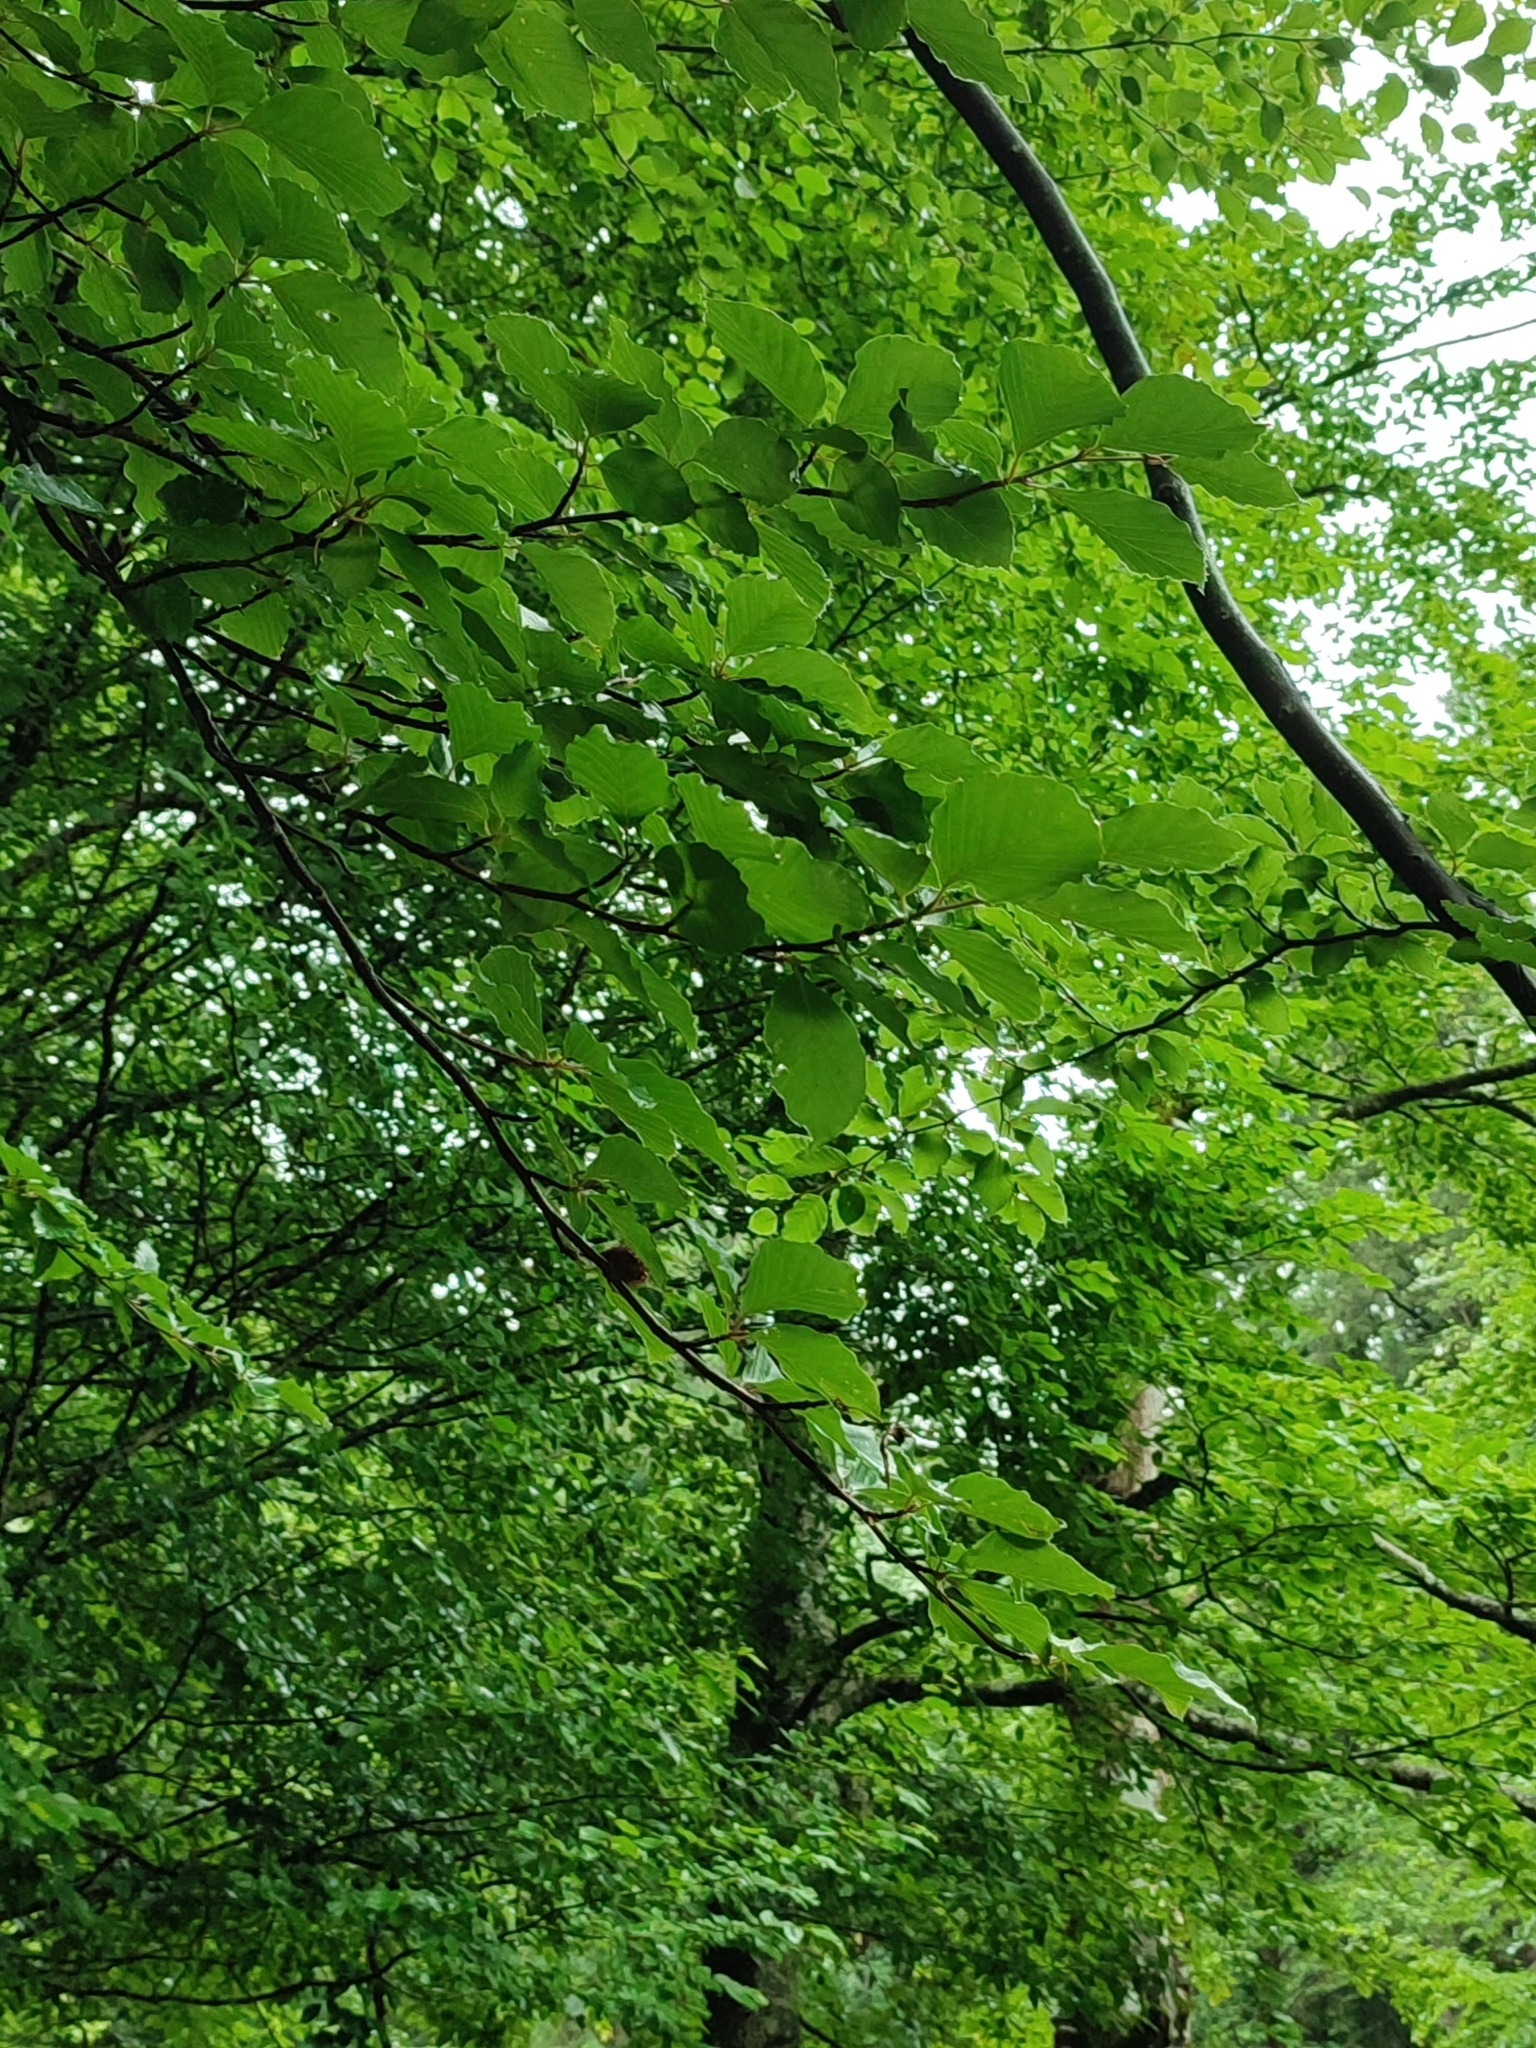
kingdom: Plantae
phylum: Tracheophyta
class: Magnoliopsida
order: Fagales
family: Fagaceae
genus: Fagus
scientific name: Fagus sylvatica
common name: Beech
